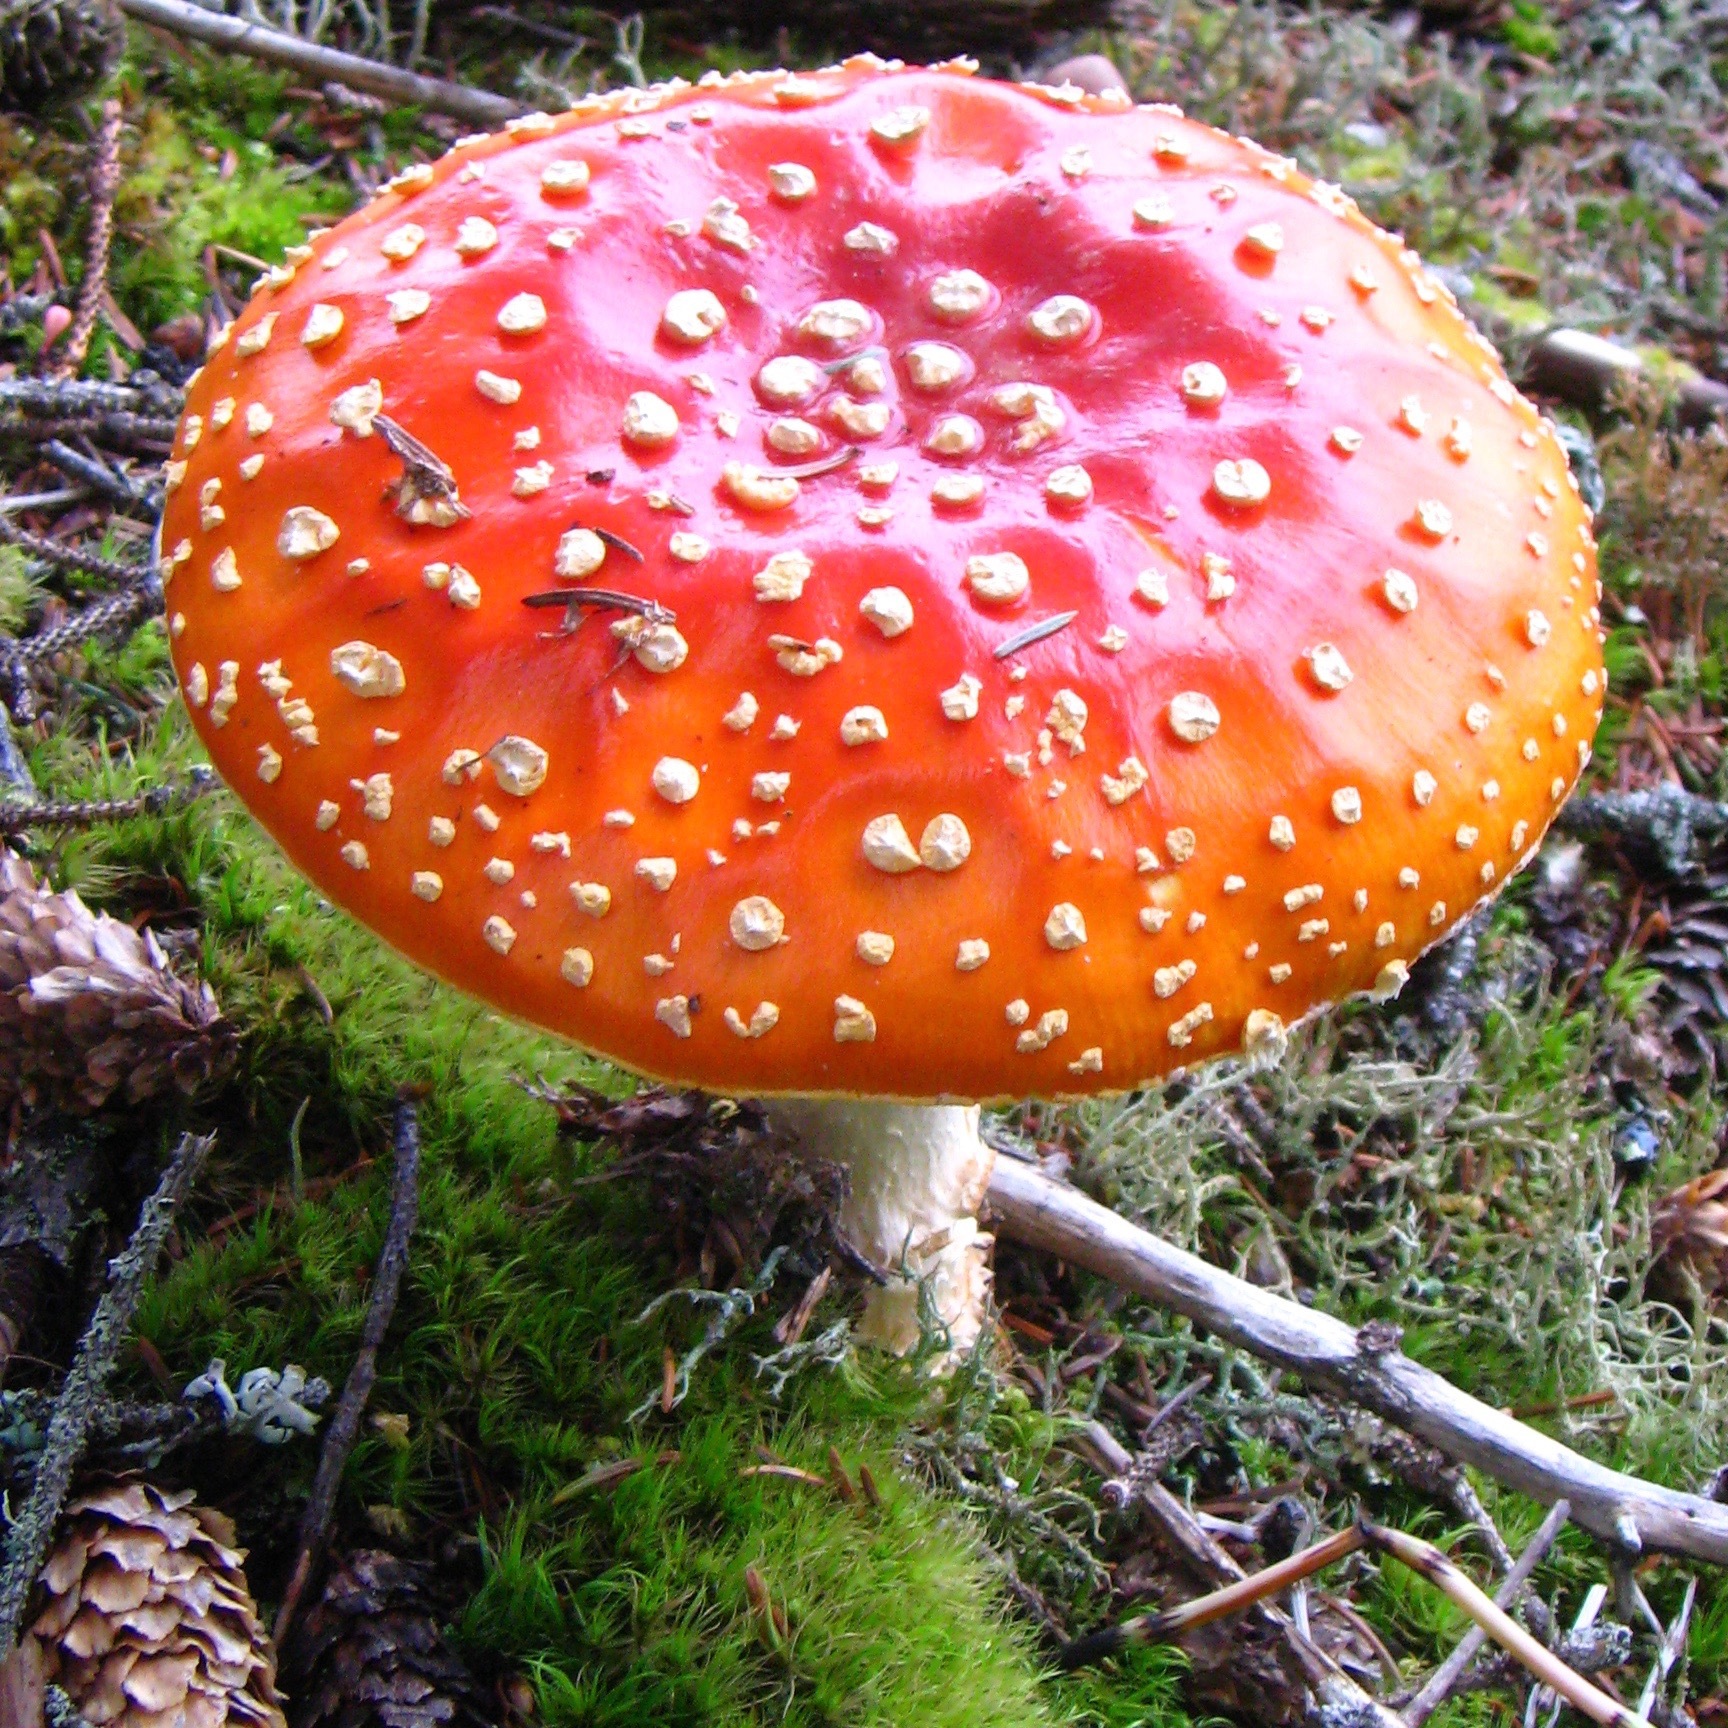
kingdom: Fungi
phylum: Basidiomycota
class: Agaricomycetes
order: Agaricales
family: Amanitaceae
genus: Amanita
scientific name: Amanita muscaria
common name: Fly agaric
